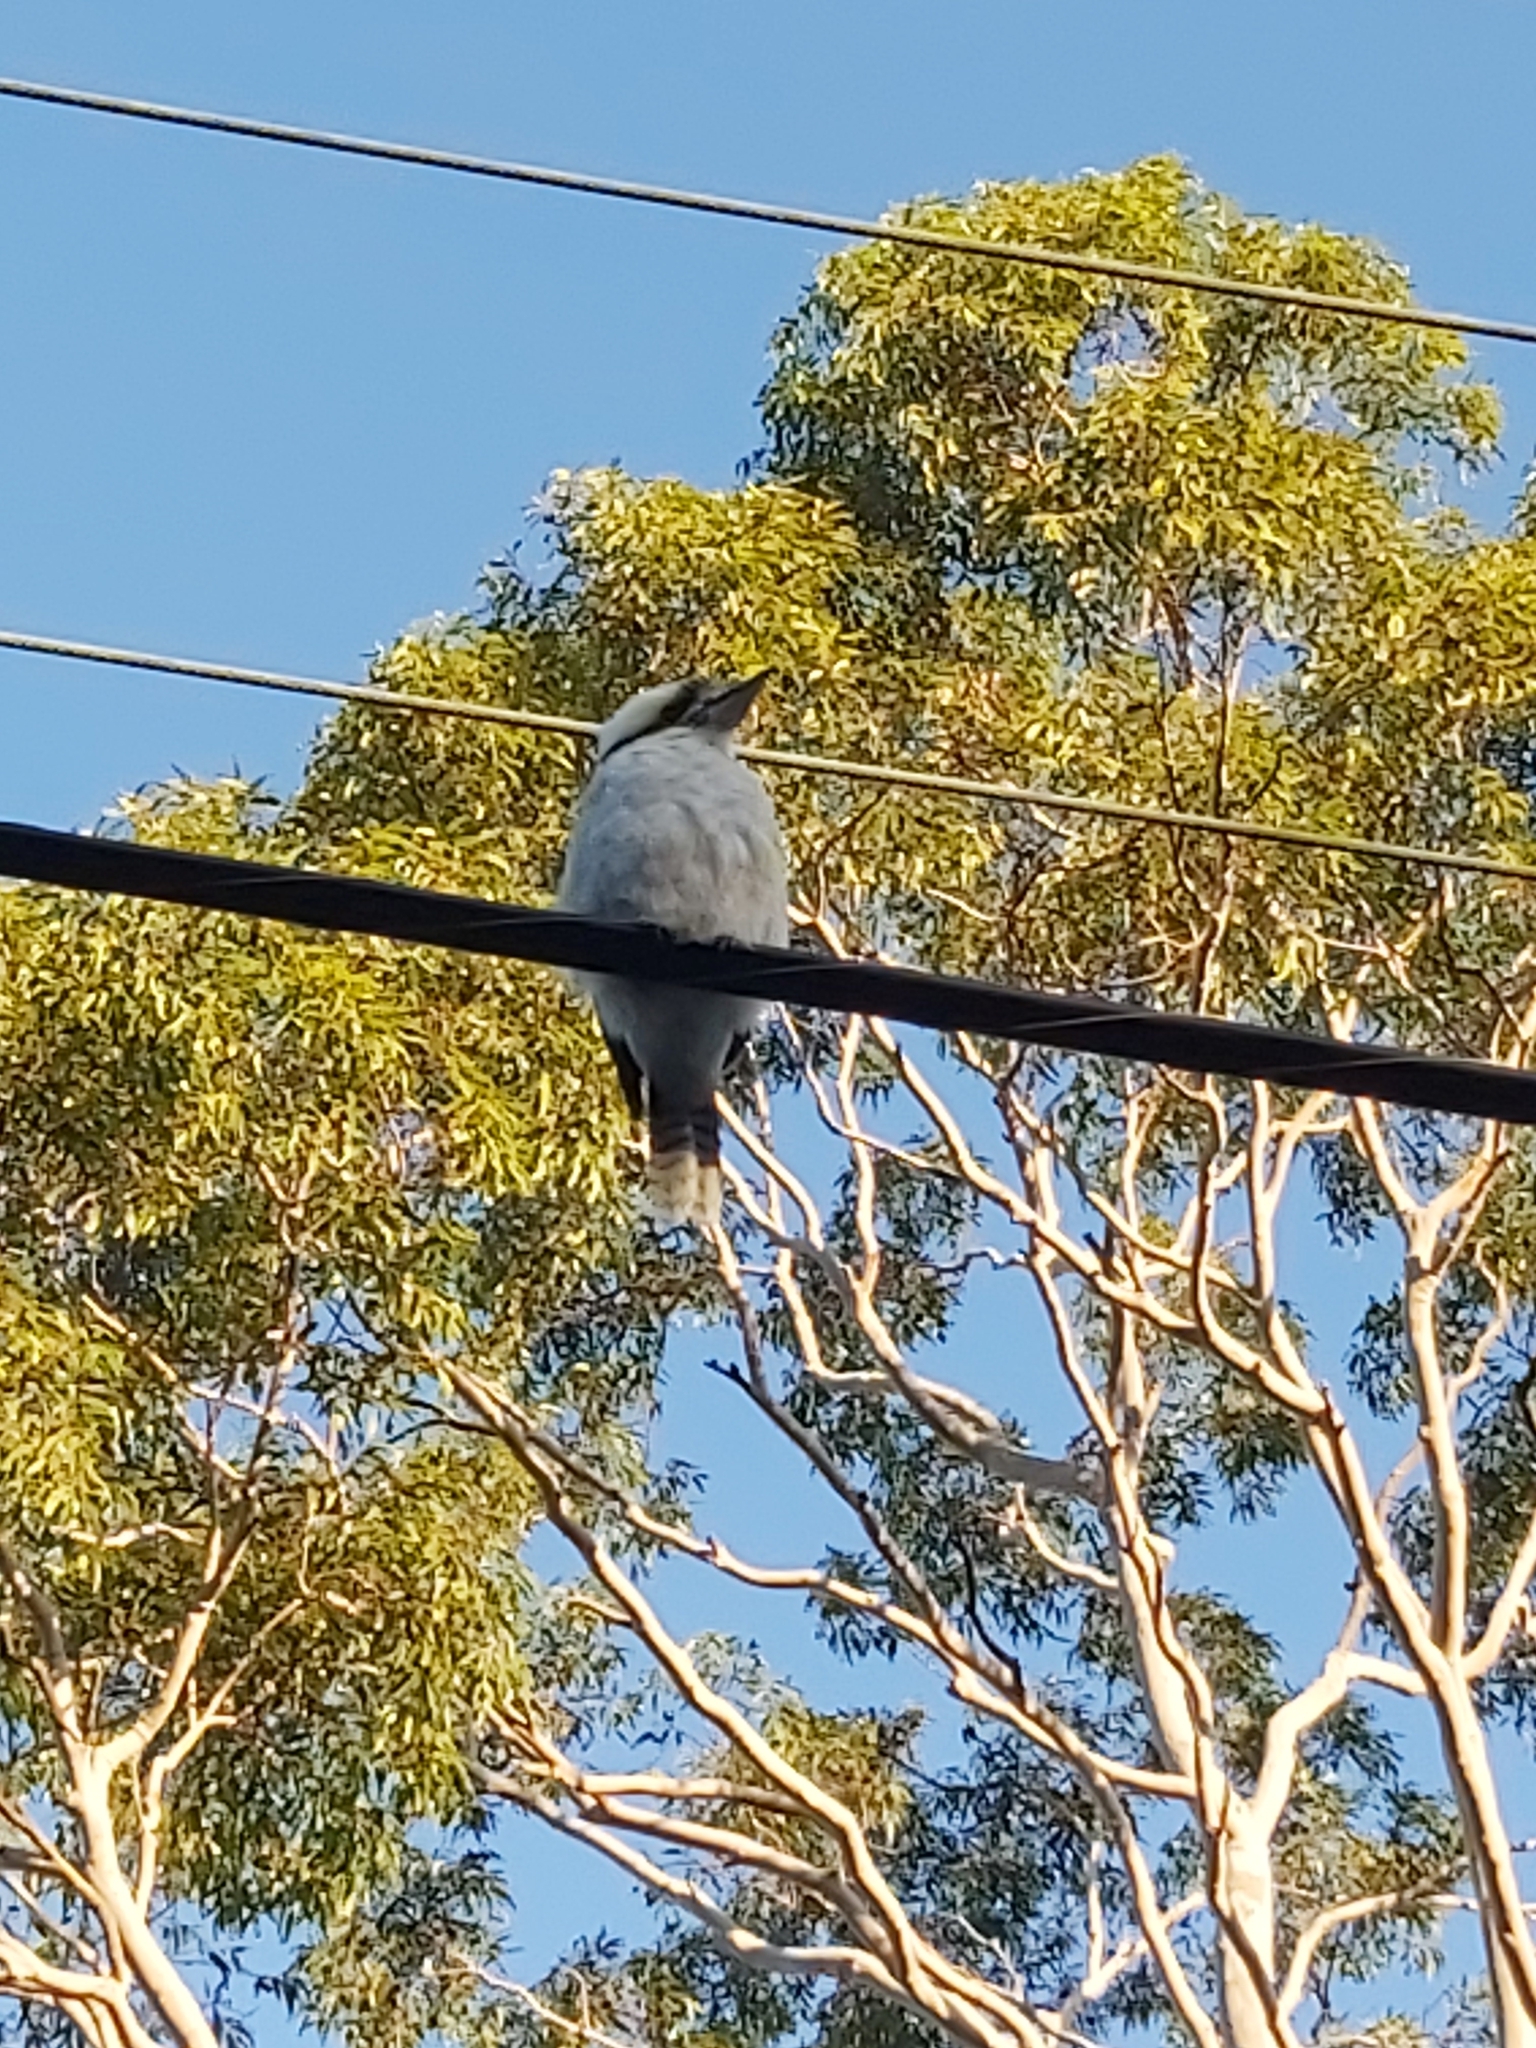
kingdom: Animalia
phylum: Chordata
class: Aves
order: Coraciiformes
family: Alcedinidae
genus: Dacelo
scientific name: Dacelo novaeguineae
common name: Laughing kookaburra
